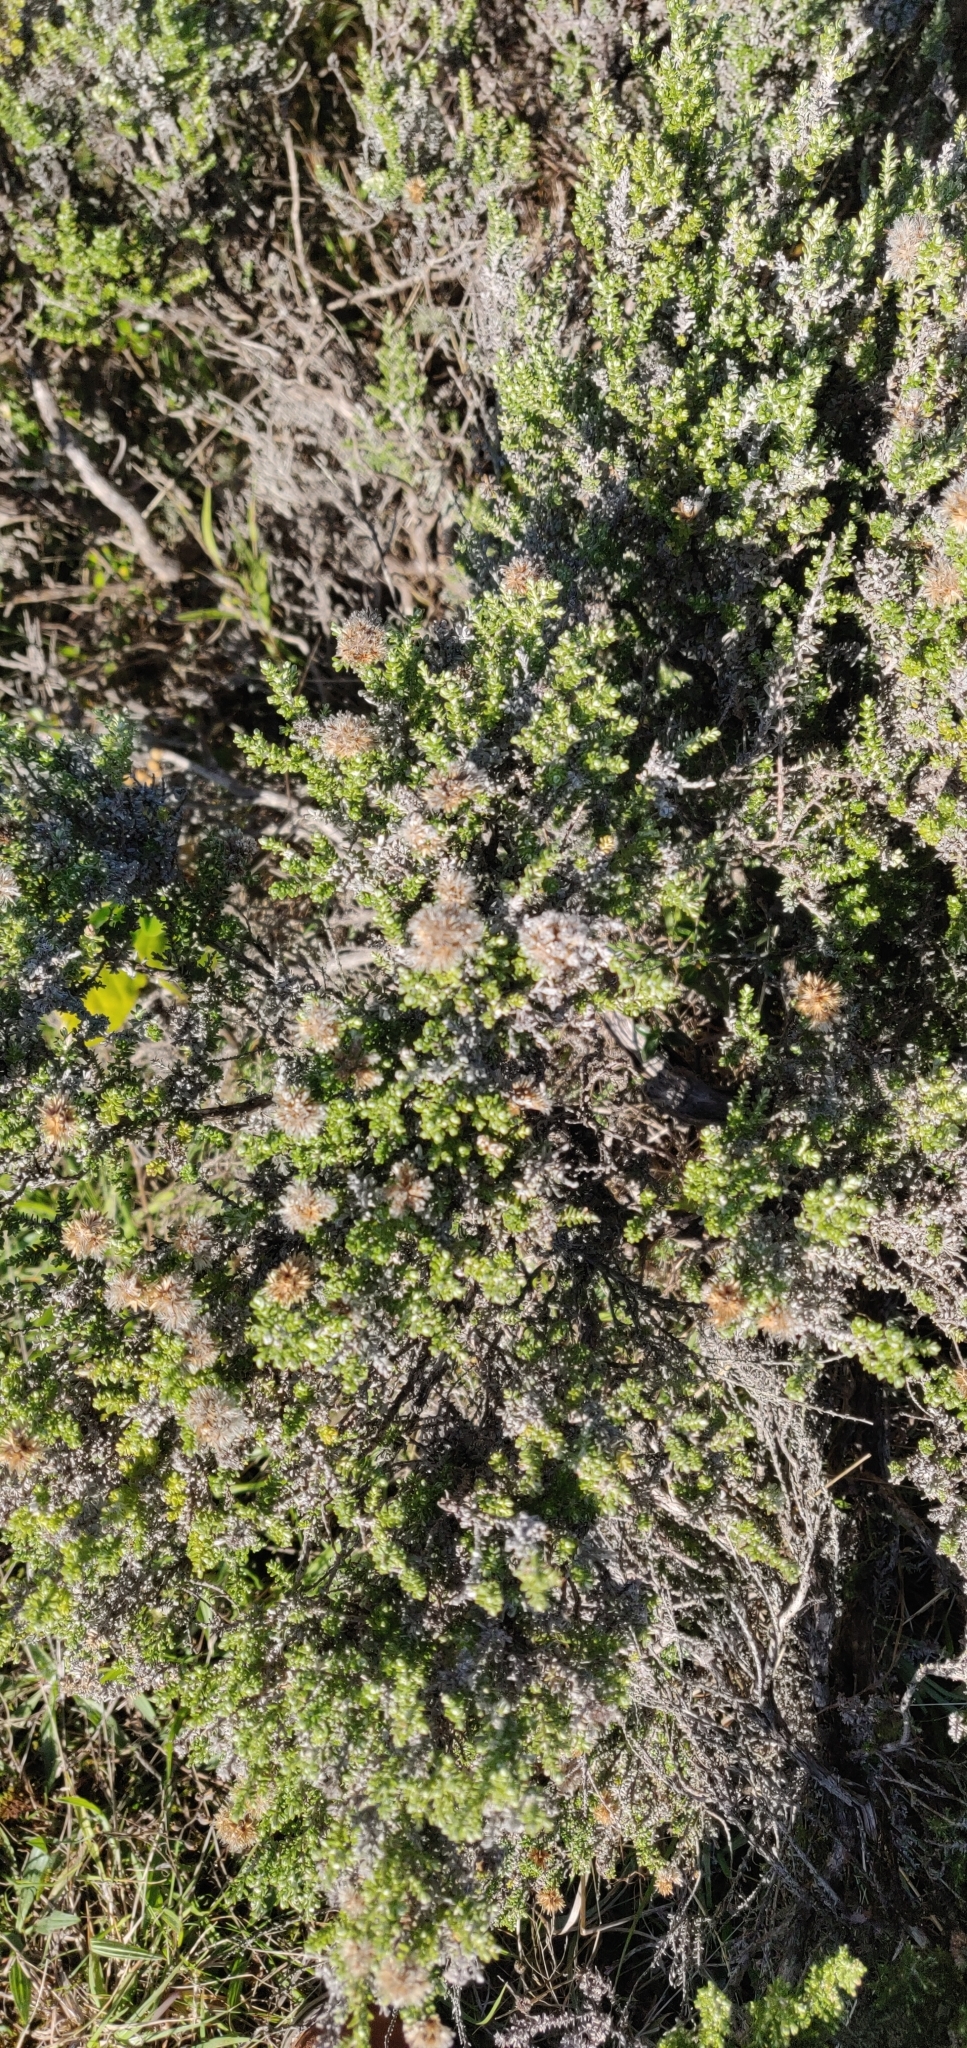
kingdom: Plantae
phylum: Tracheophyta
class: Magnoliopsida
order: Asterales
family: Asteraceae
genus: Ozothamnus
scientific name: Ozothamnus leptophyllus
